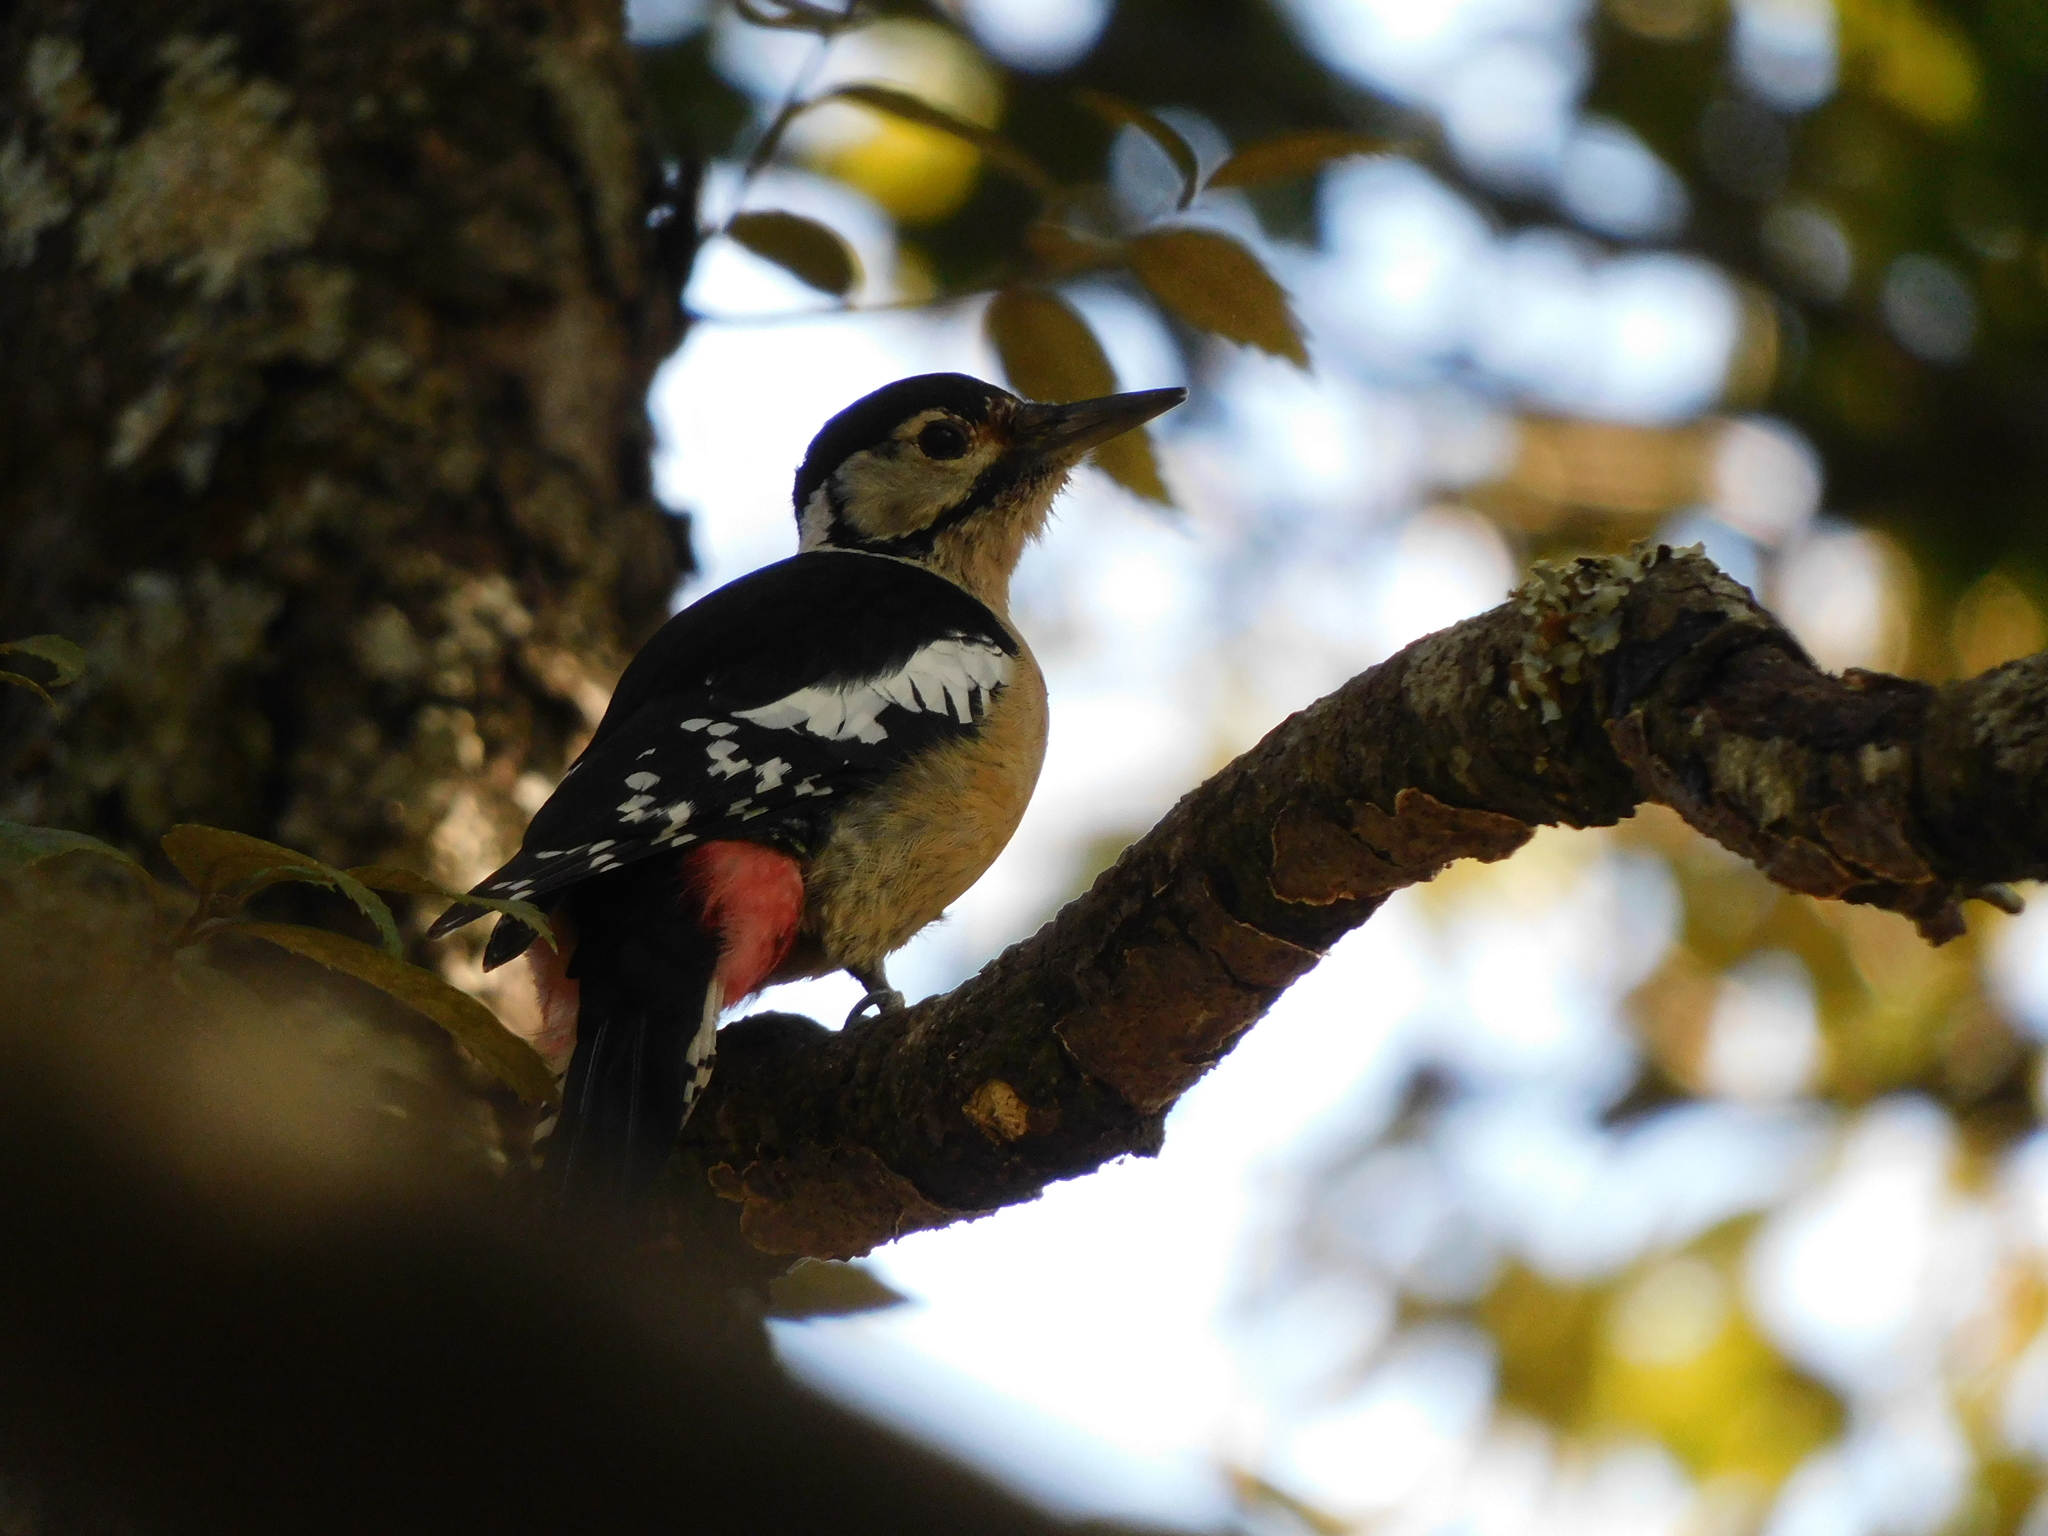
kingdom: Animalia
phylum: Chordata
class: Aves
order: Piciformes
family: Picidae
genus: Dendrocopos
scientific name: Dendrocopos himalayensis
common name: Himalayan woodpecker
